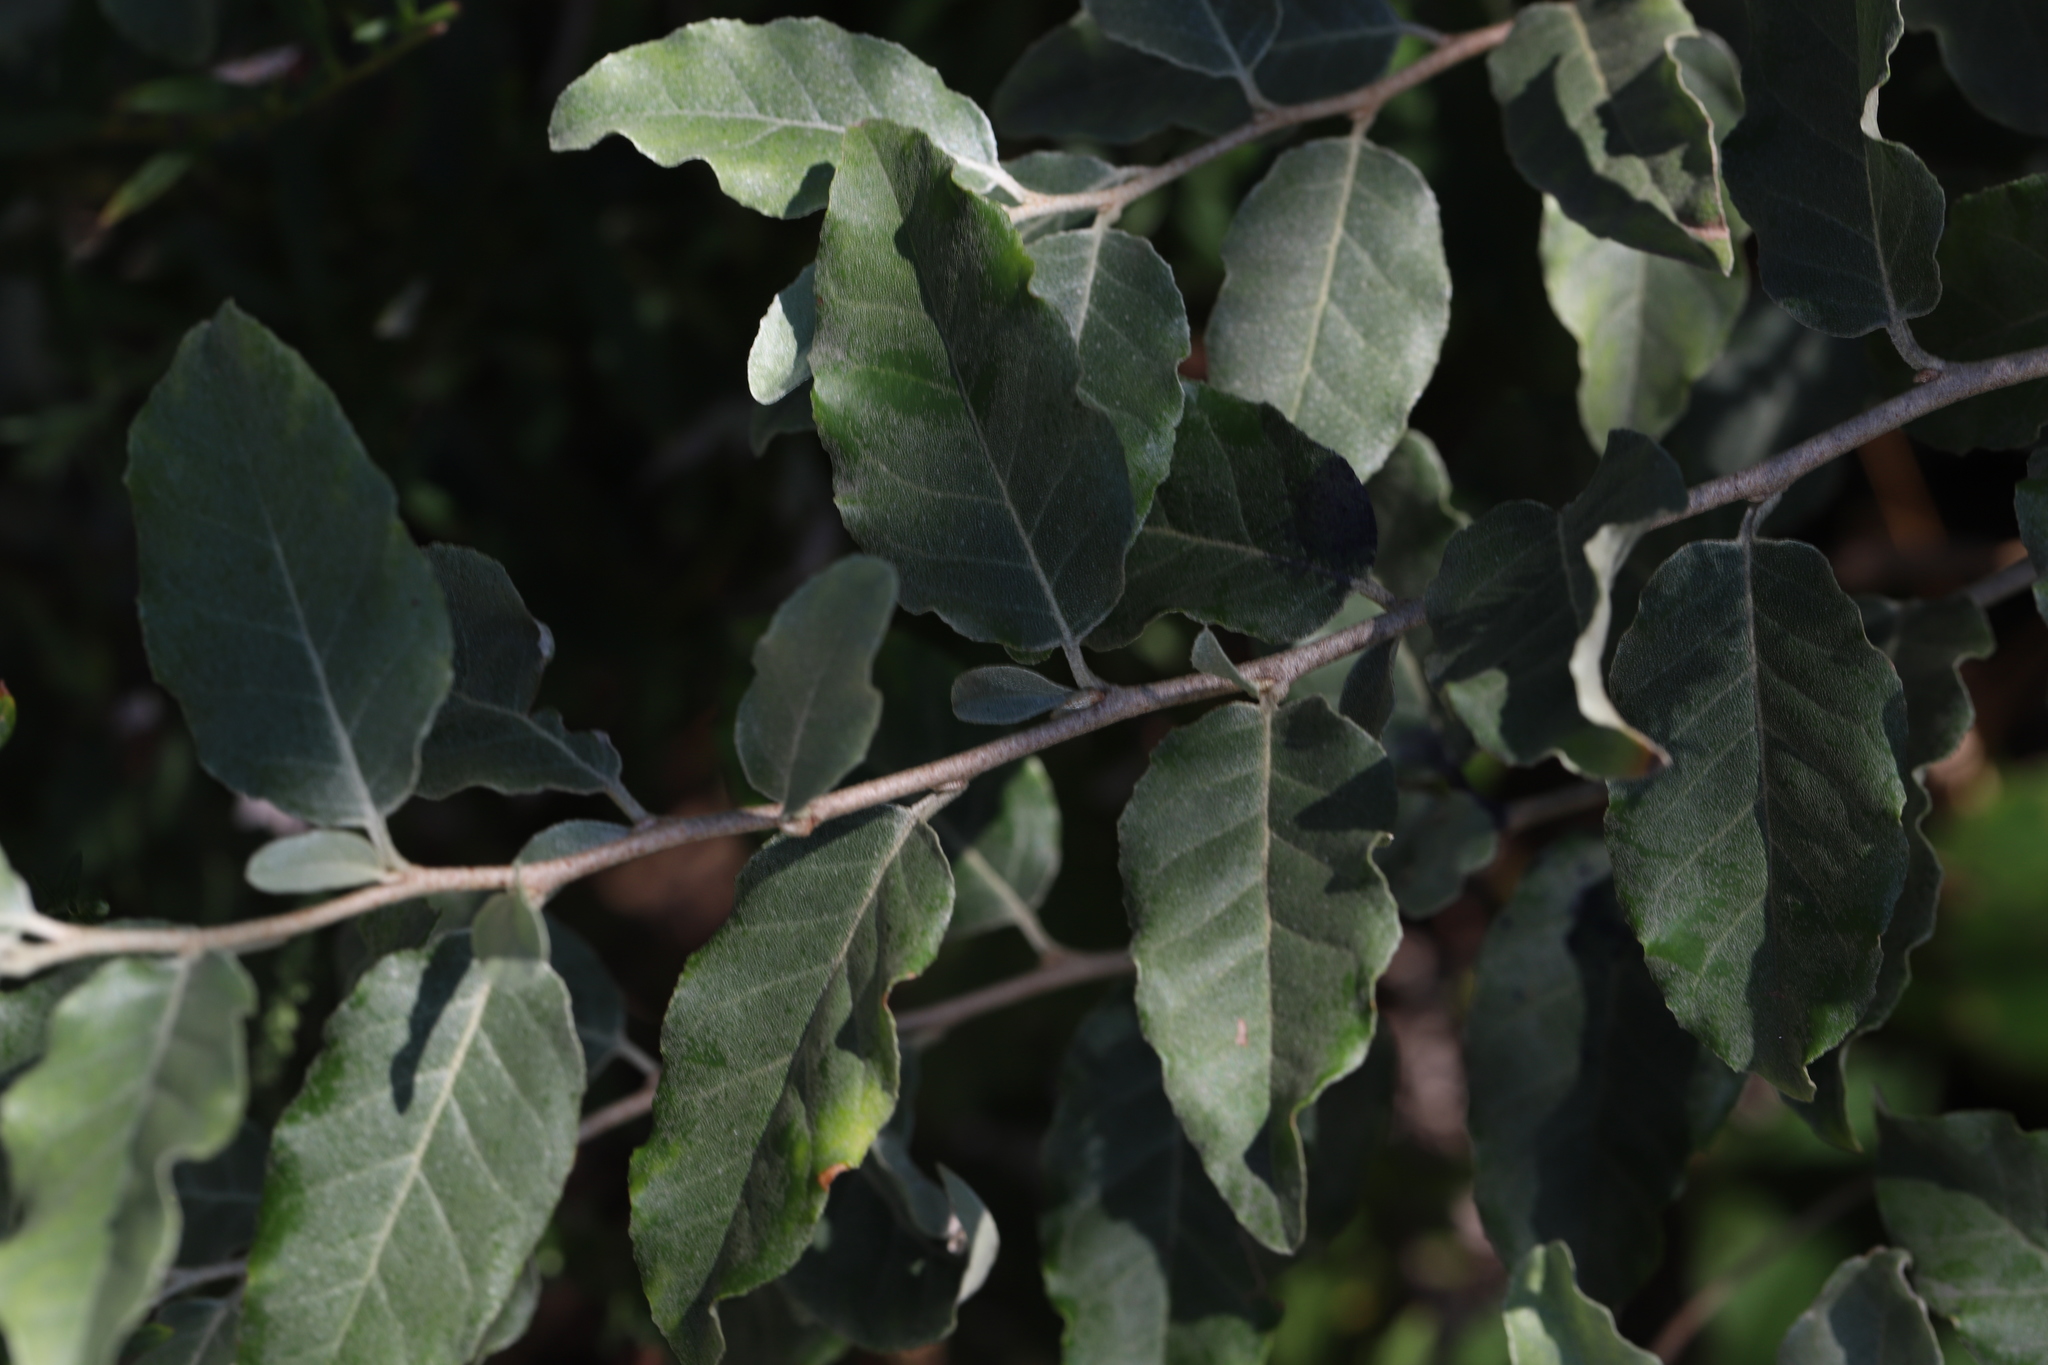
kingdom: Plantae
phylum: Tracheophyta
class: Magnoliopsida
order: Rosales
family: Elaeagnaceae
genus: Elaeagnus
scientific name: Elaeagnus umbellata
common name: Autumn olive
